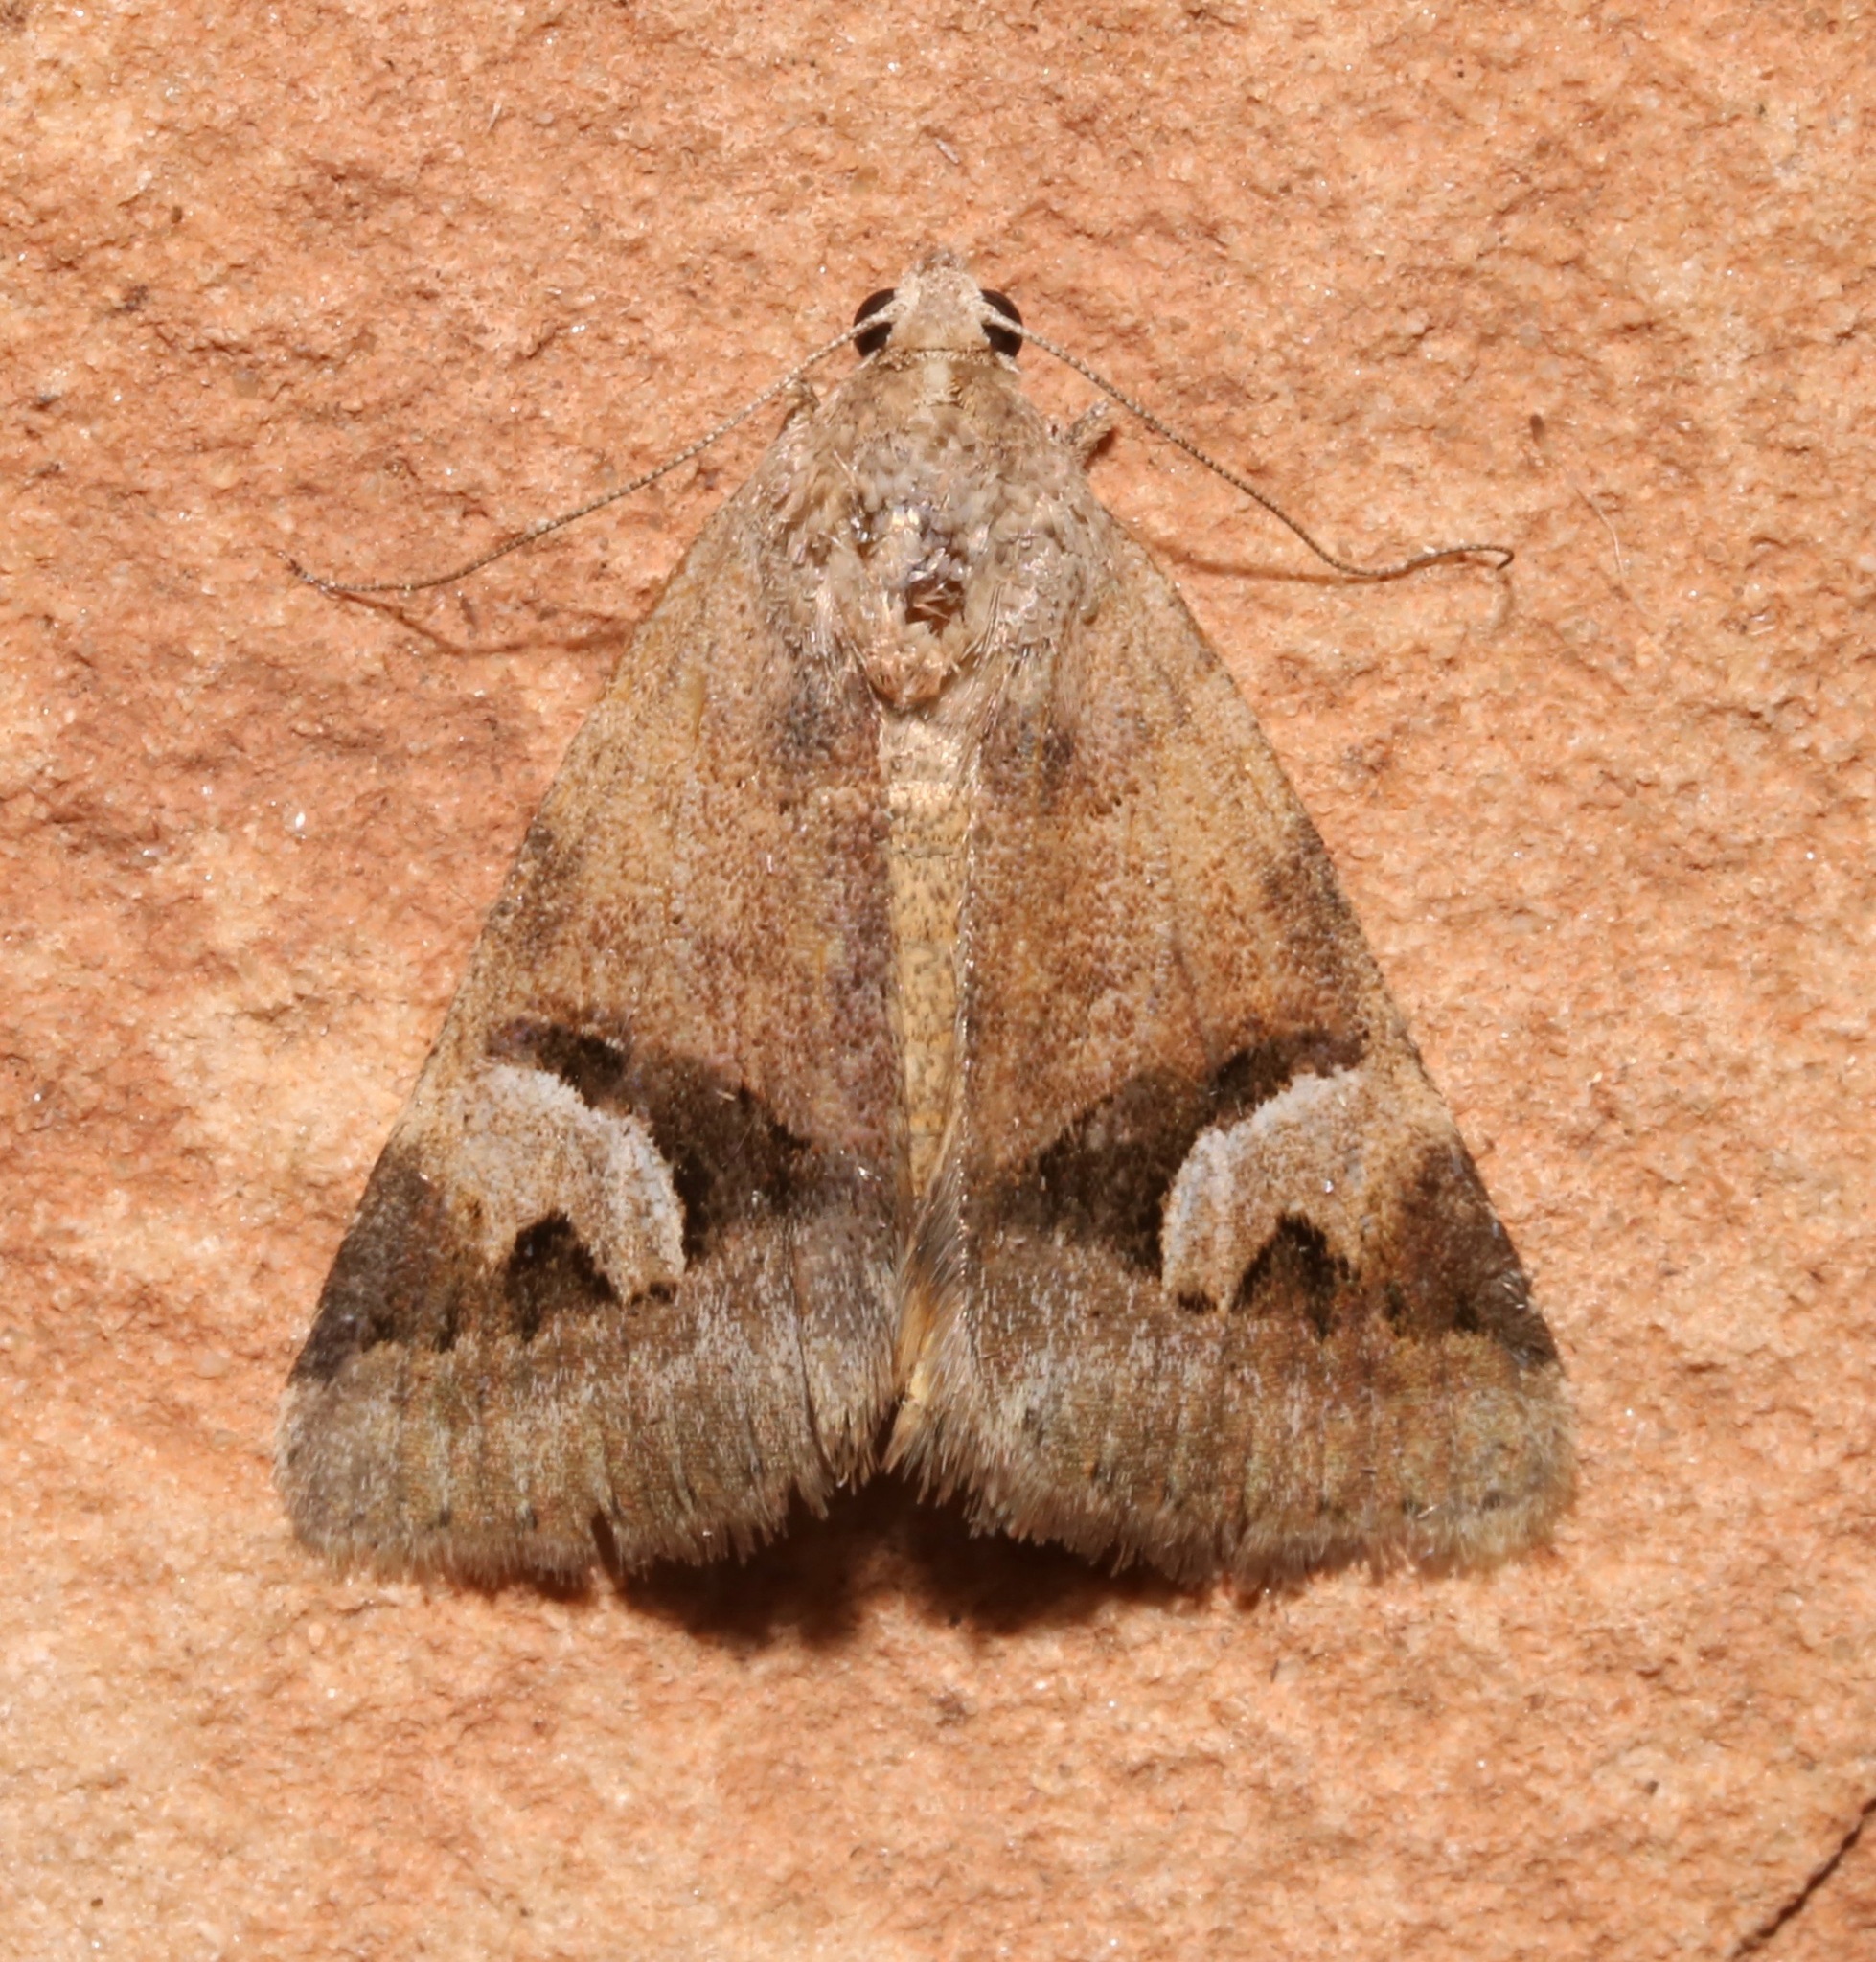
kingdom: Animalia
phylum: Arthropoda
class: Insecta
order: Lepidoptera
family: Erebidae
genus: Drasteria
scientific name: Drasteria perplexa
